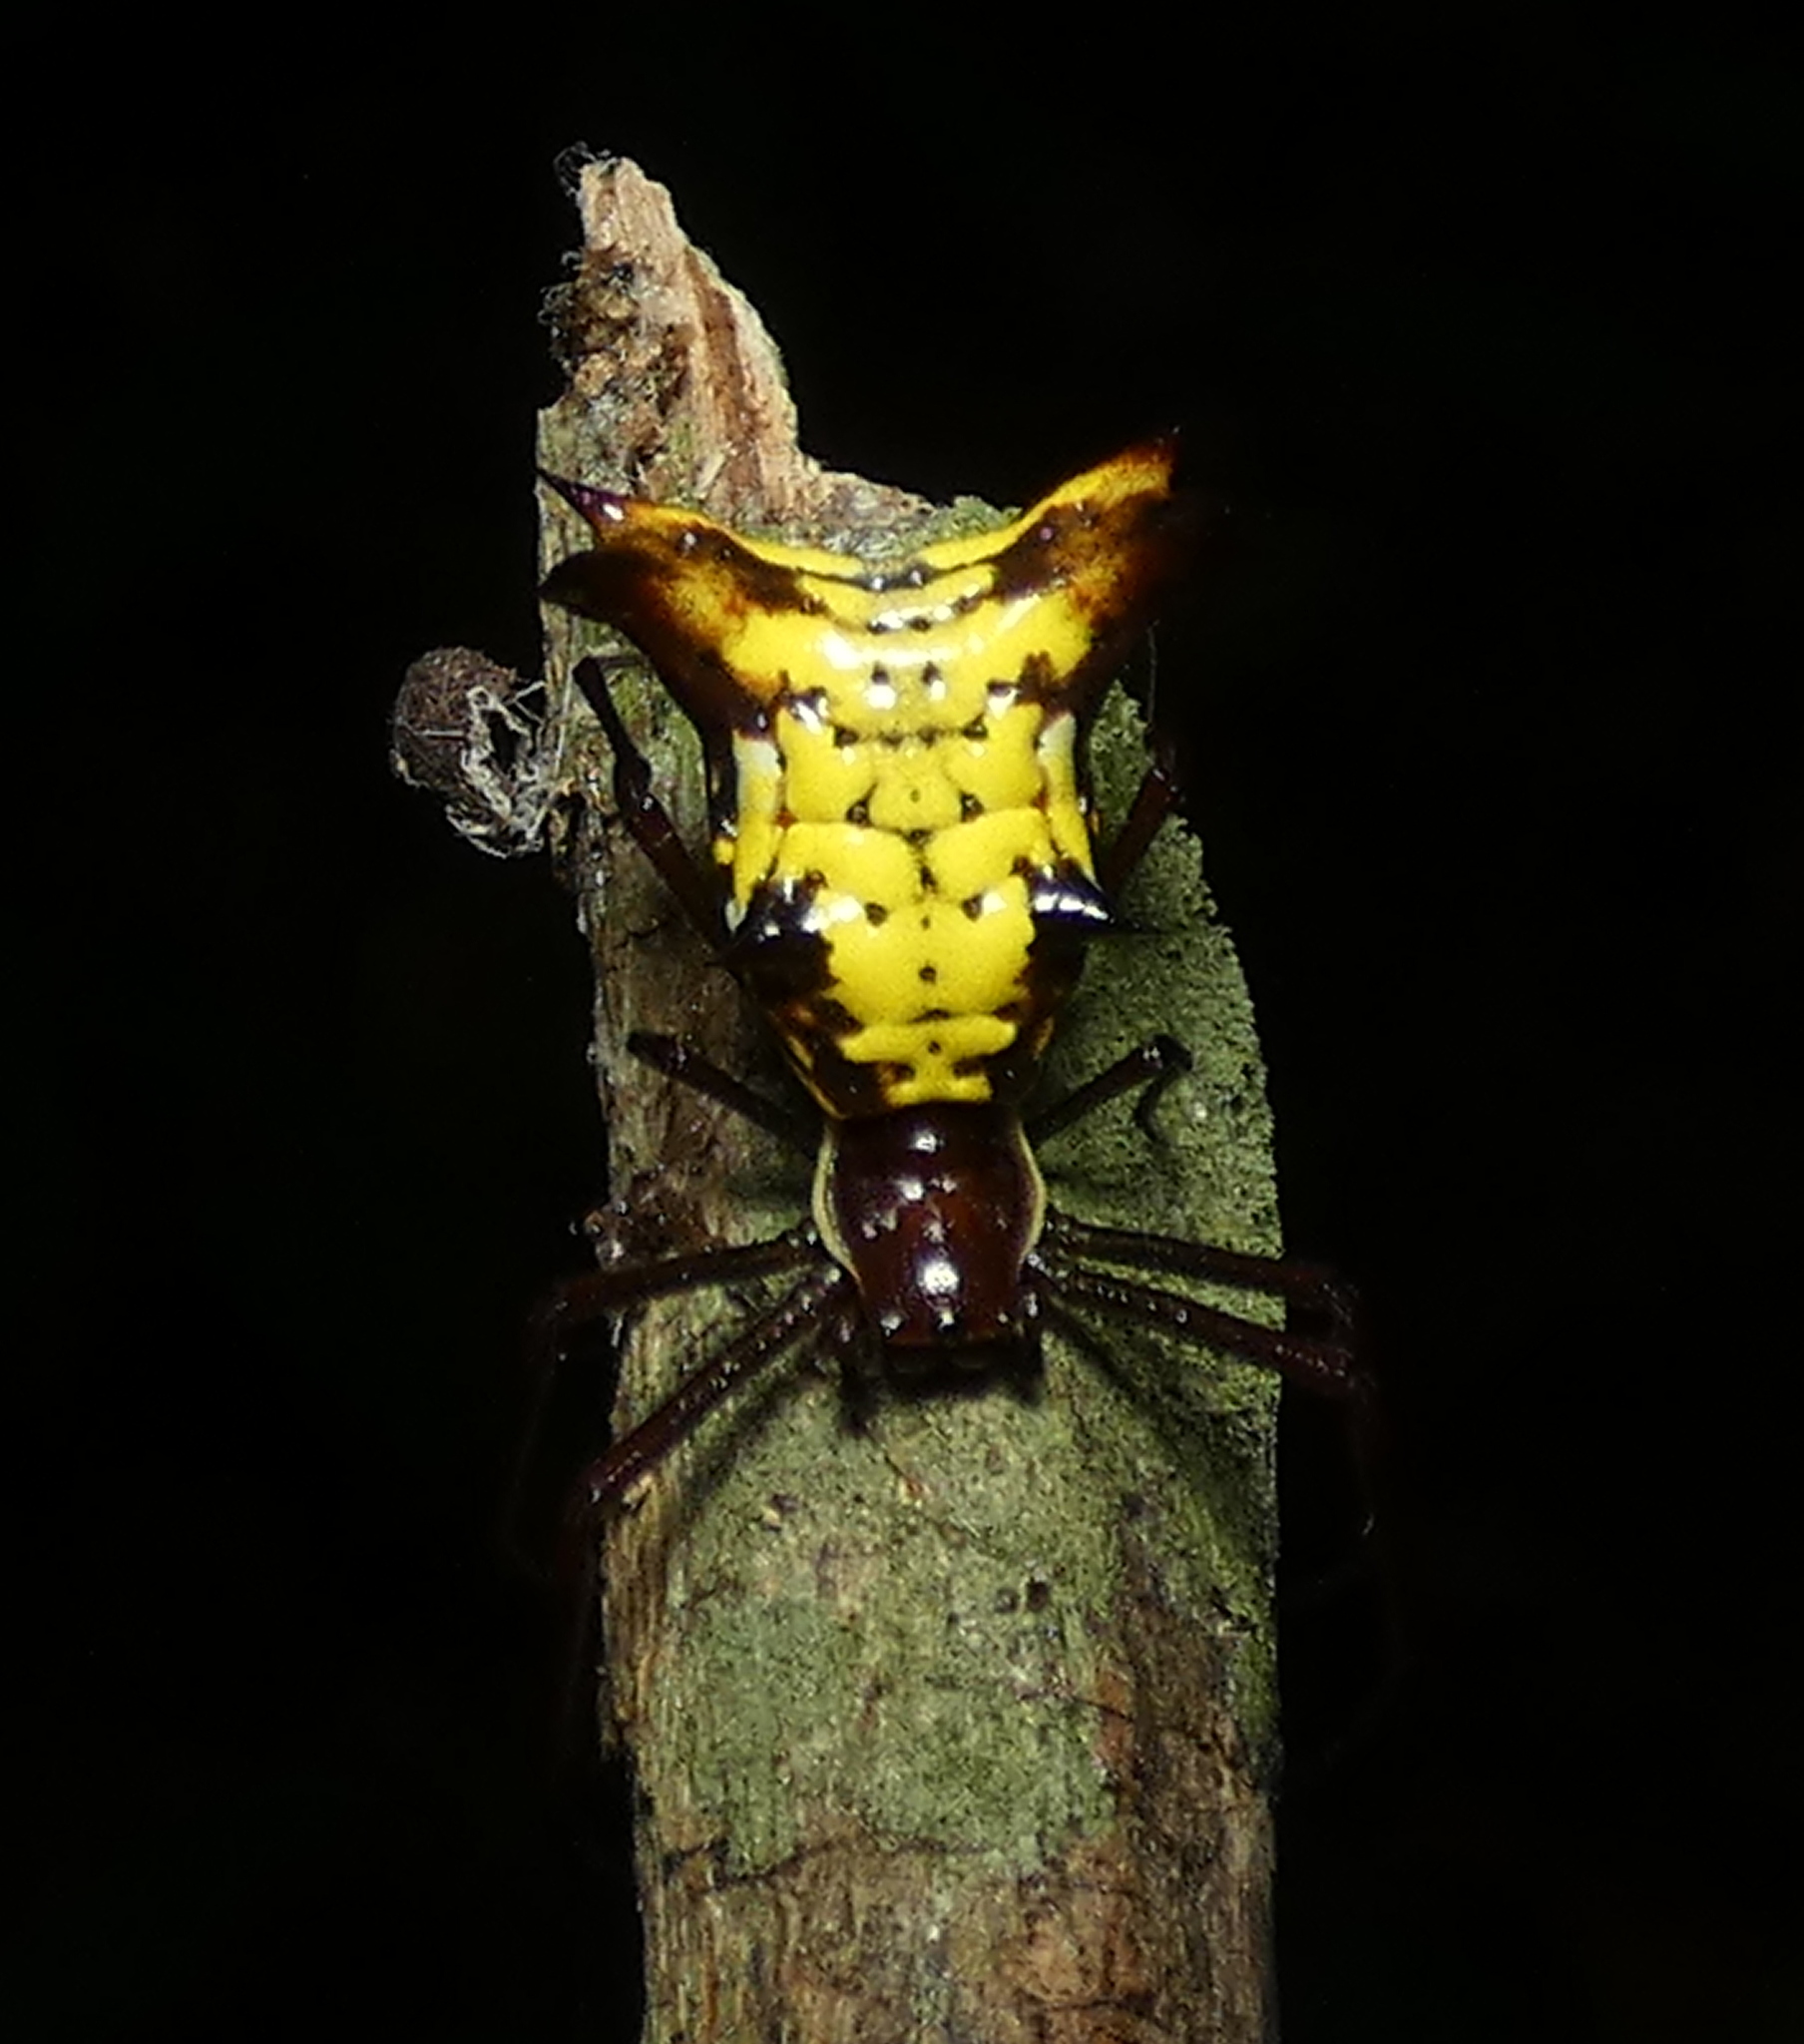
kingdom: Animalia
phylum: Arthropoda
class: Arachnida
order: Araneae
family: Araneidae
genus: Micrathena
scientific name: Micrathena fissispina
